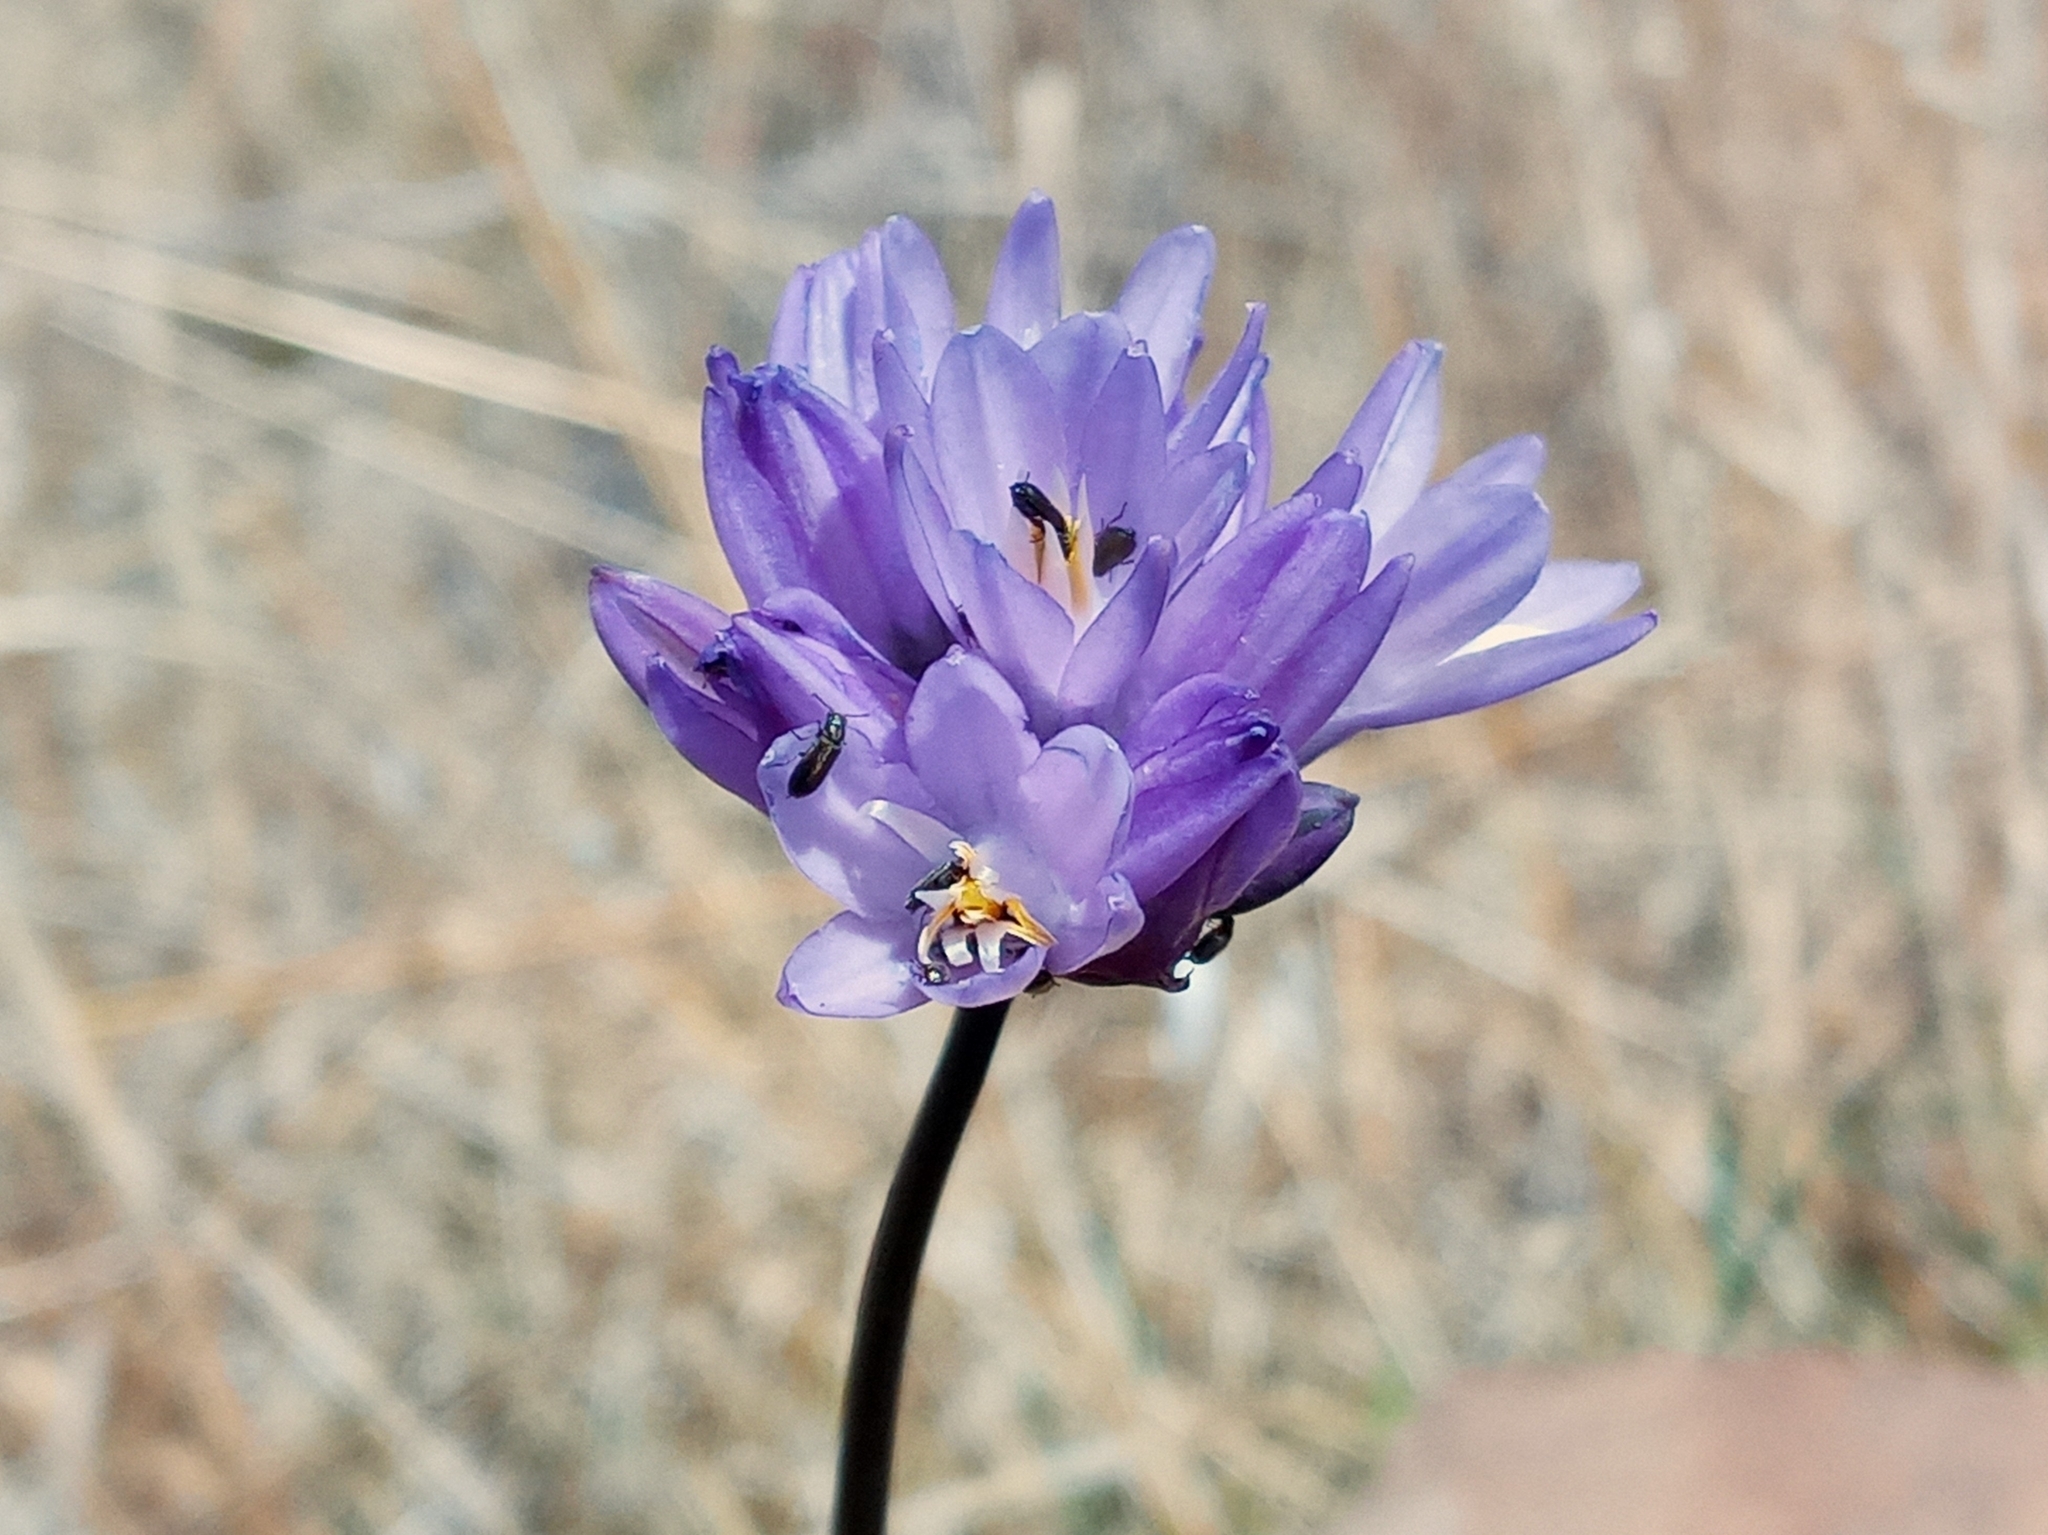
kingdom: Plantae
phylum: Tracheophyta
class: Liliopsida
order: Asparagales
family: Asparagaceae
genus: Dipterostemon
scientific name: Dipterostemon capitatus
